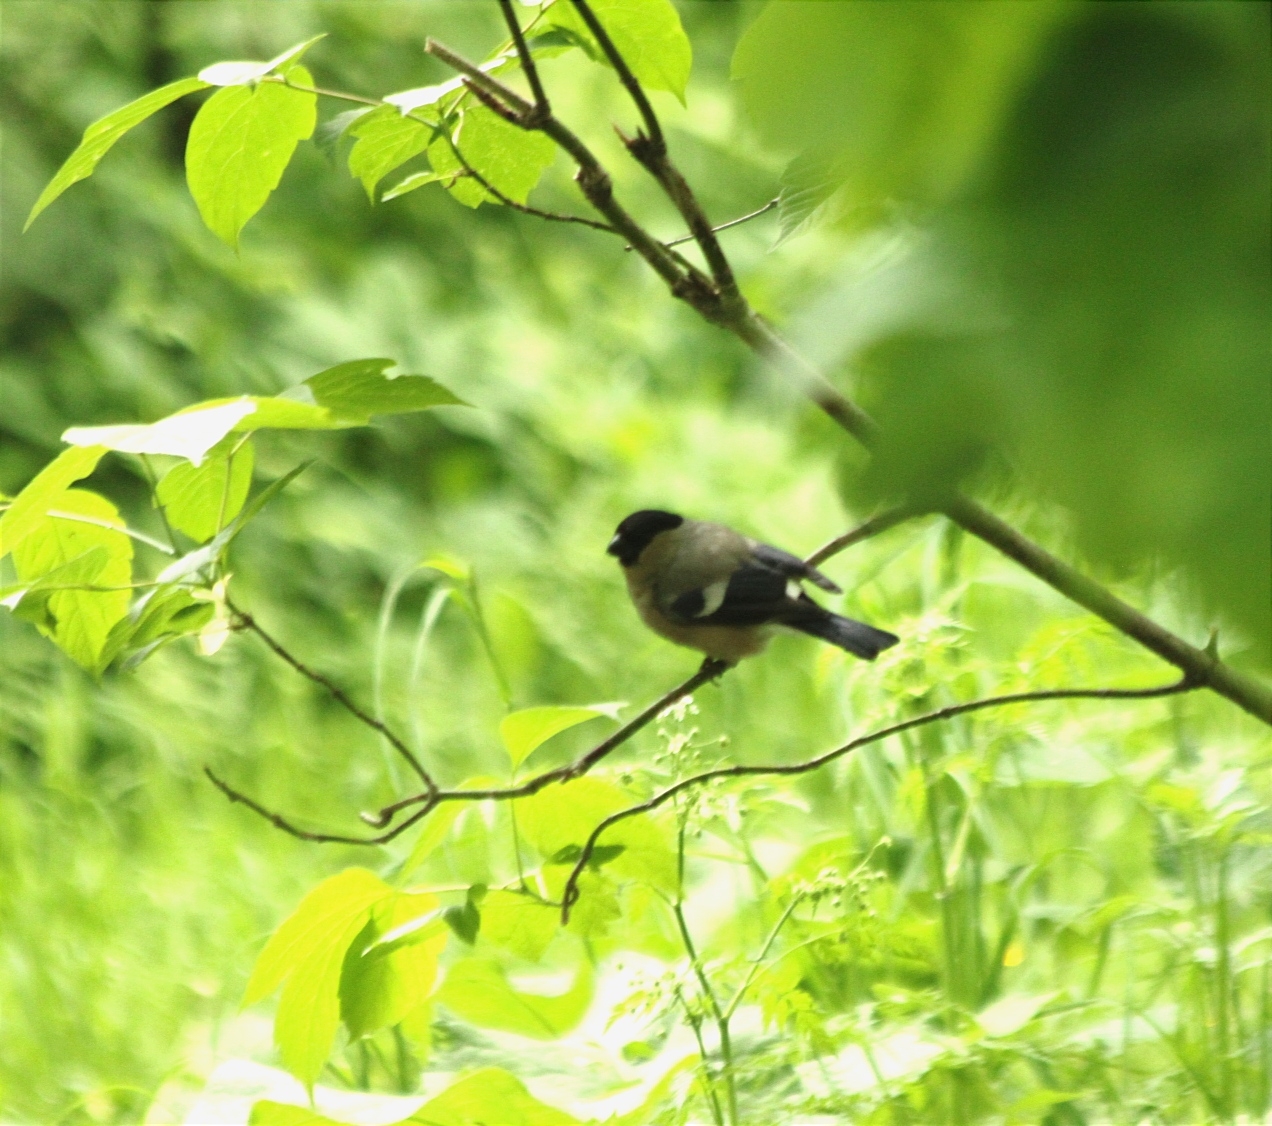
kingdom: Animalia
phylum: Chordata
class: Aves
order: Passeriformes
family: Fringillidae
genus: Pyrrhula
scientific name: Pyrrhula pyrrhula
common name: Eurasian bullfinch
